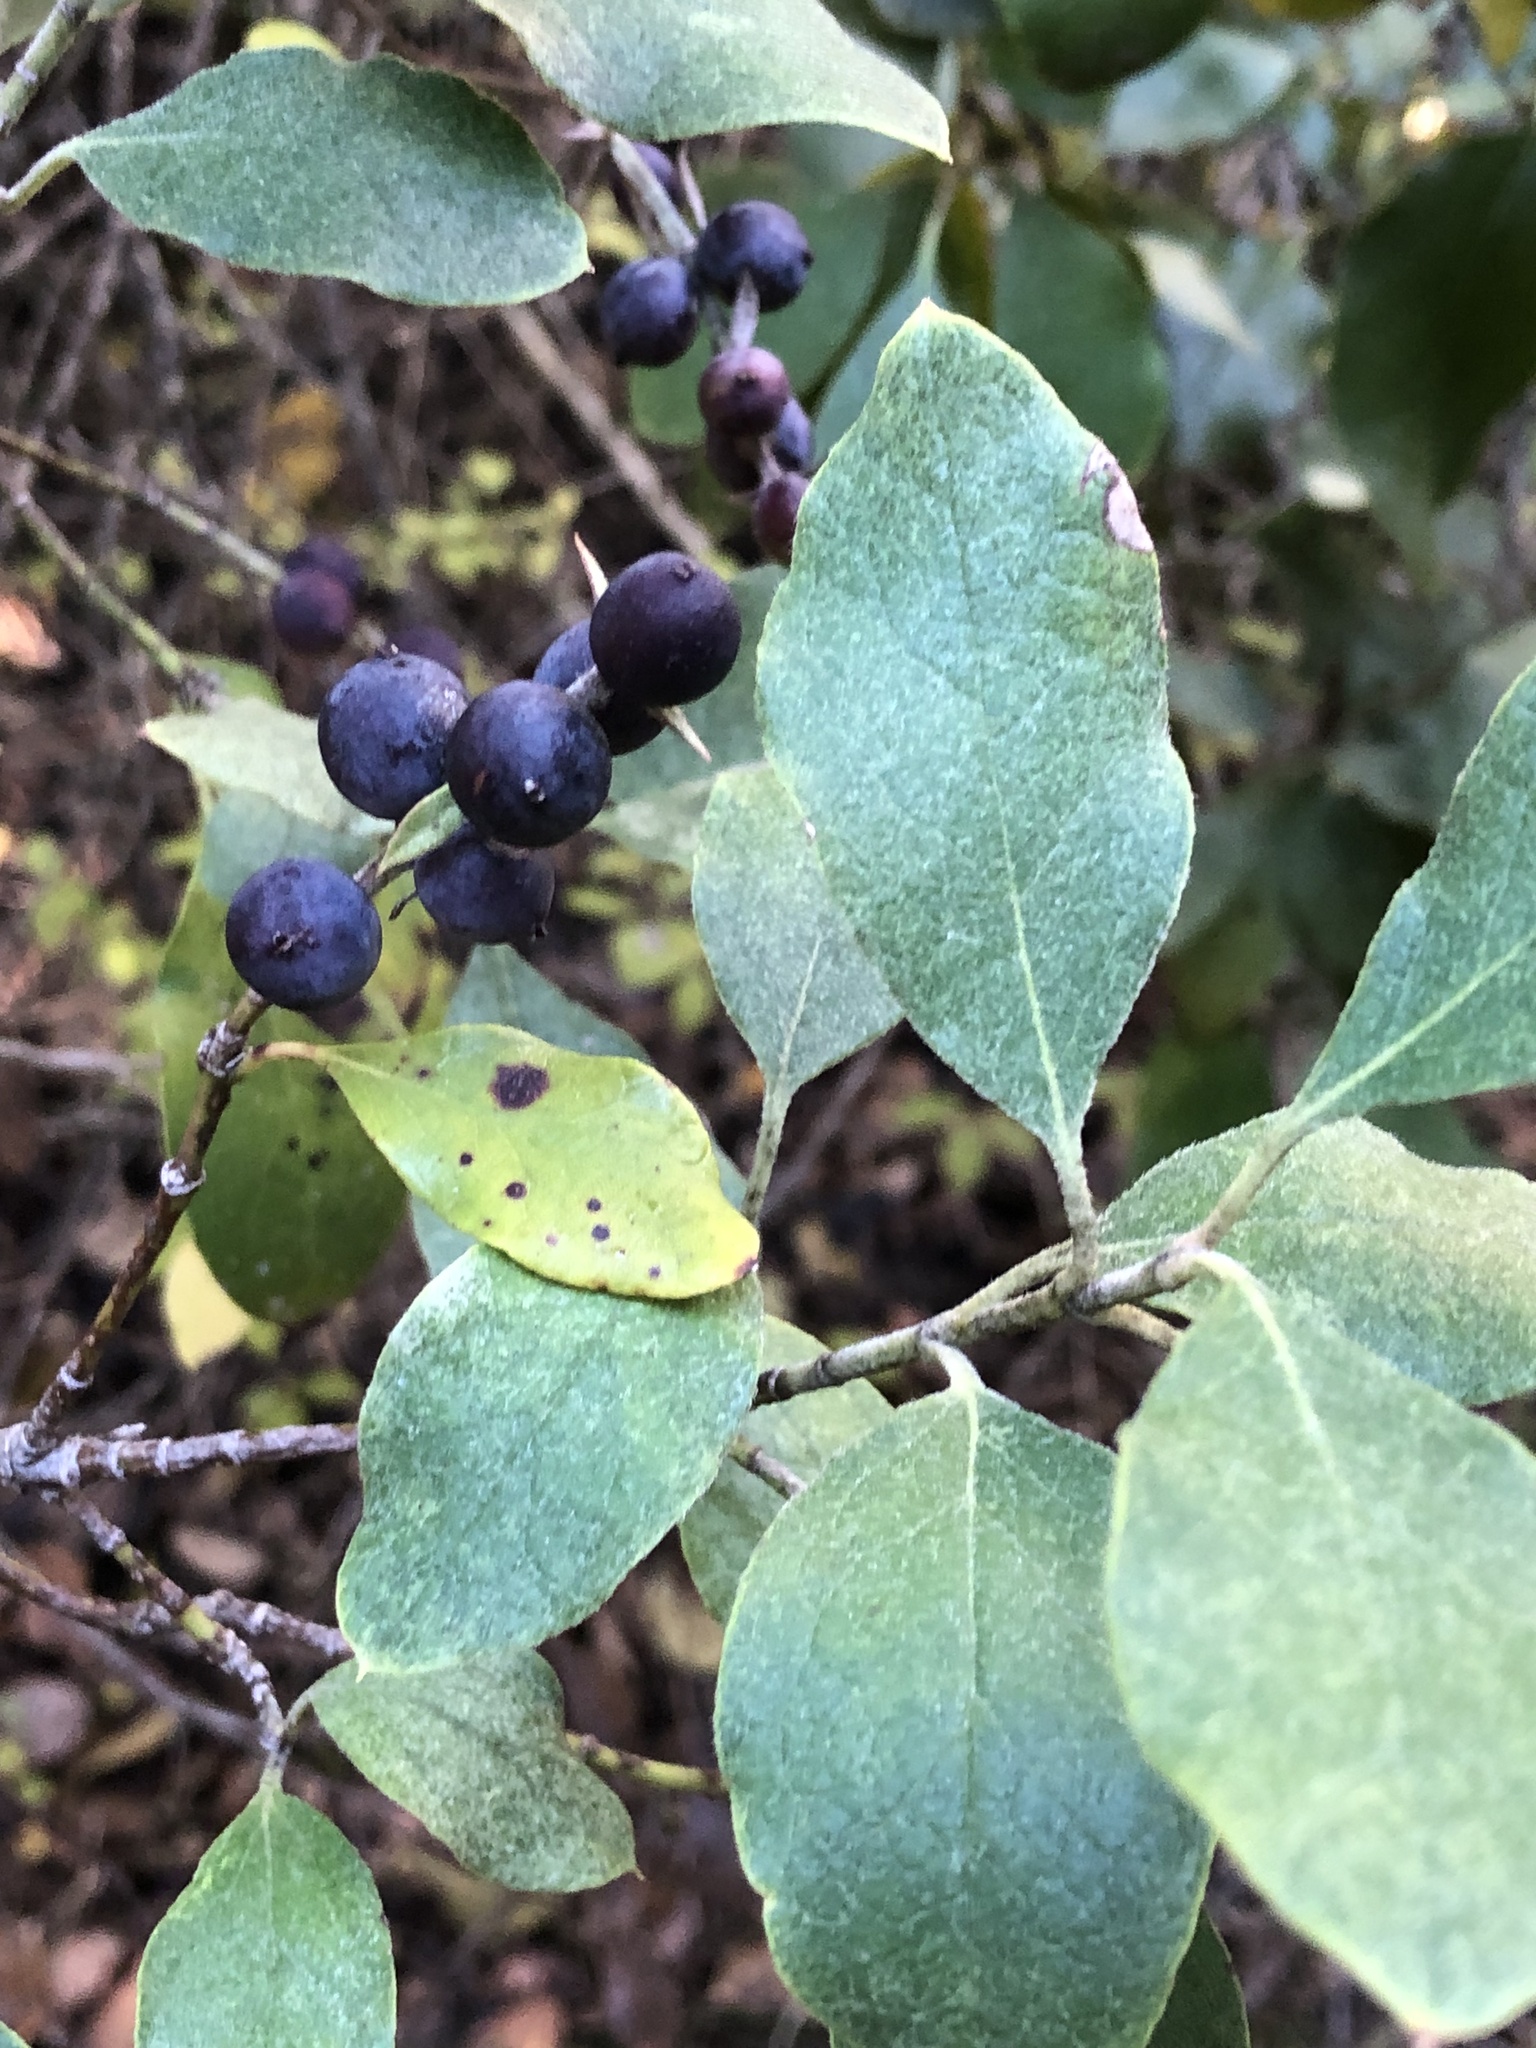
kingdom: Plantae
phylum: Tracheophyta
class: Magnoliopsida
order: Garryales
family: Garryaceae
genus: Garrya
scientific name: Garrya lindheimeri
